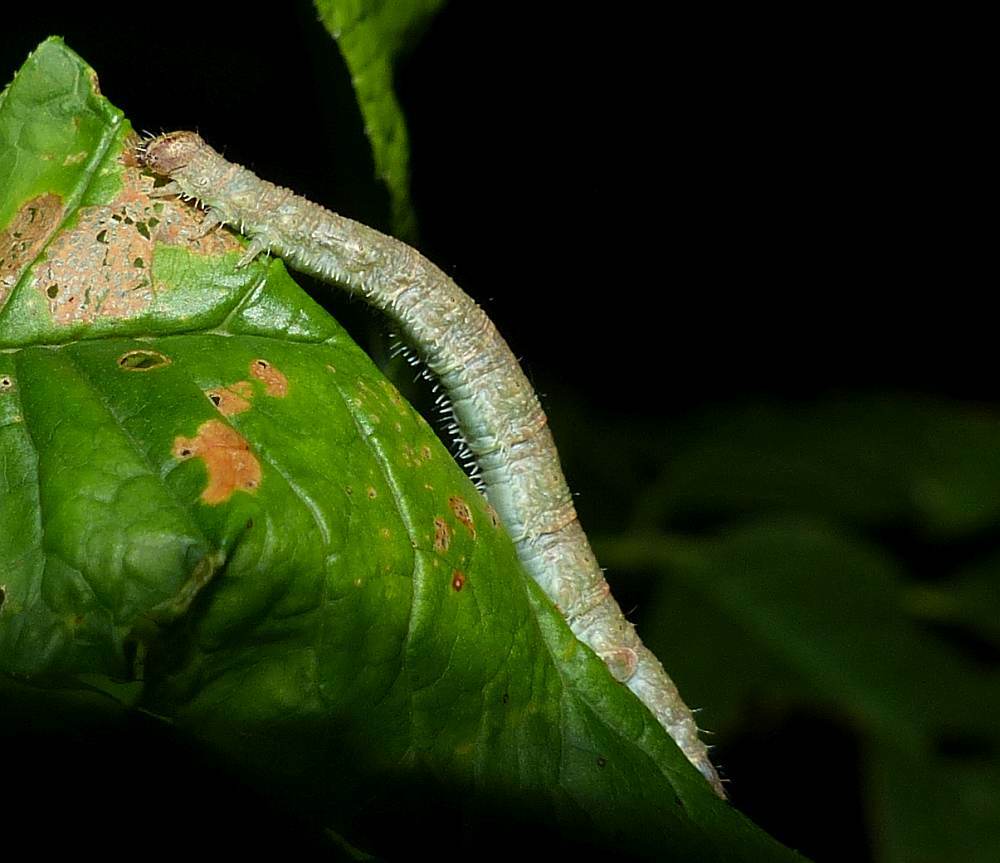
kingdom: Animalia
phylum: Arthropoda
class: Insecta
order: Lepidoptera
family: Geometridae
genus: Campaea
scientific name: Campaea perlata
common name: Fringed looper
